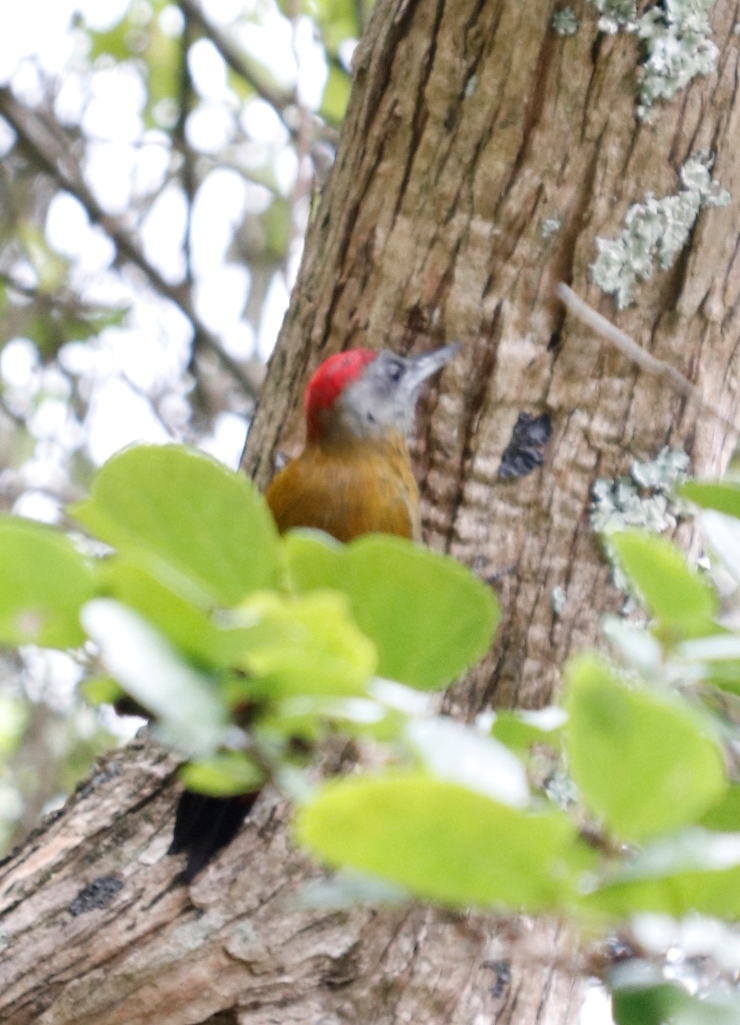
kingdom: Animalia
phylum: Chordata
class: Aves
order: Piciformes
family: Picidae
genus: Dendropicos
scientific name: Dendropicos griseocephalus
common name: Olive woodpecker
